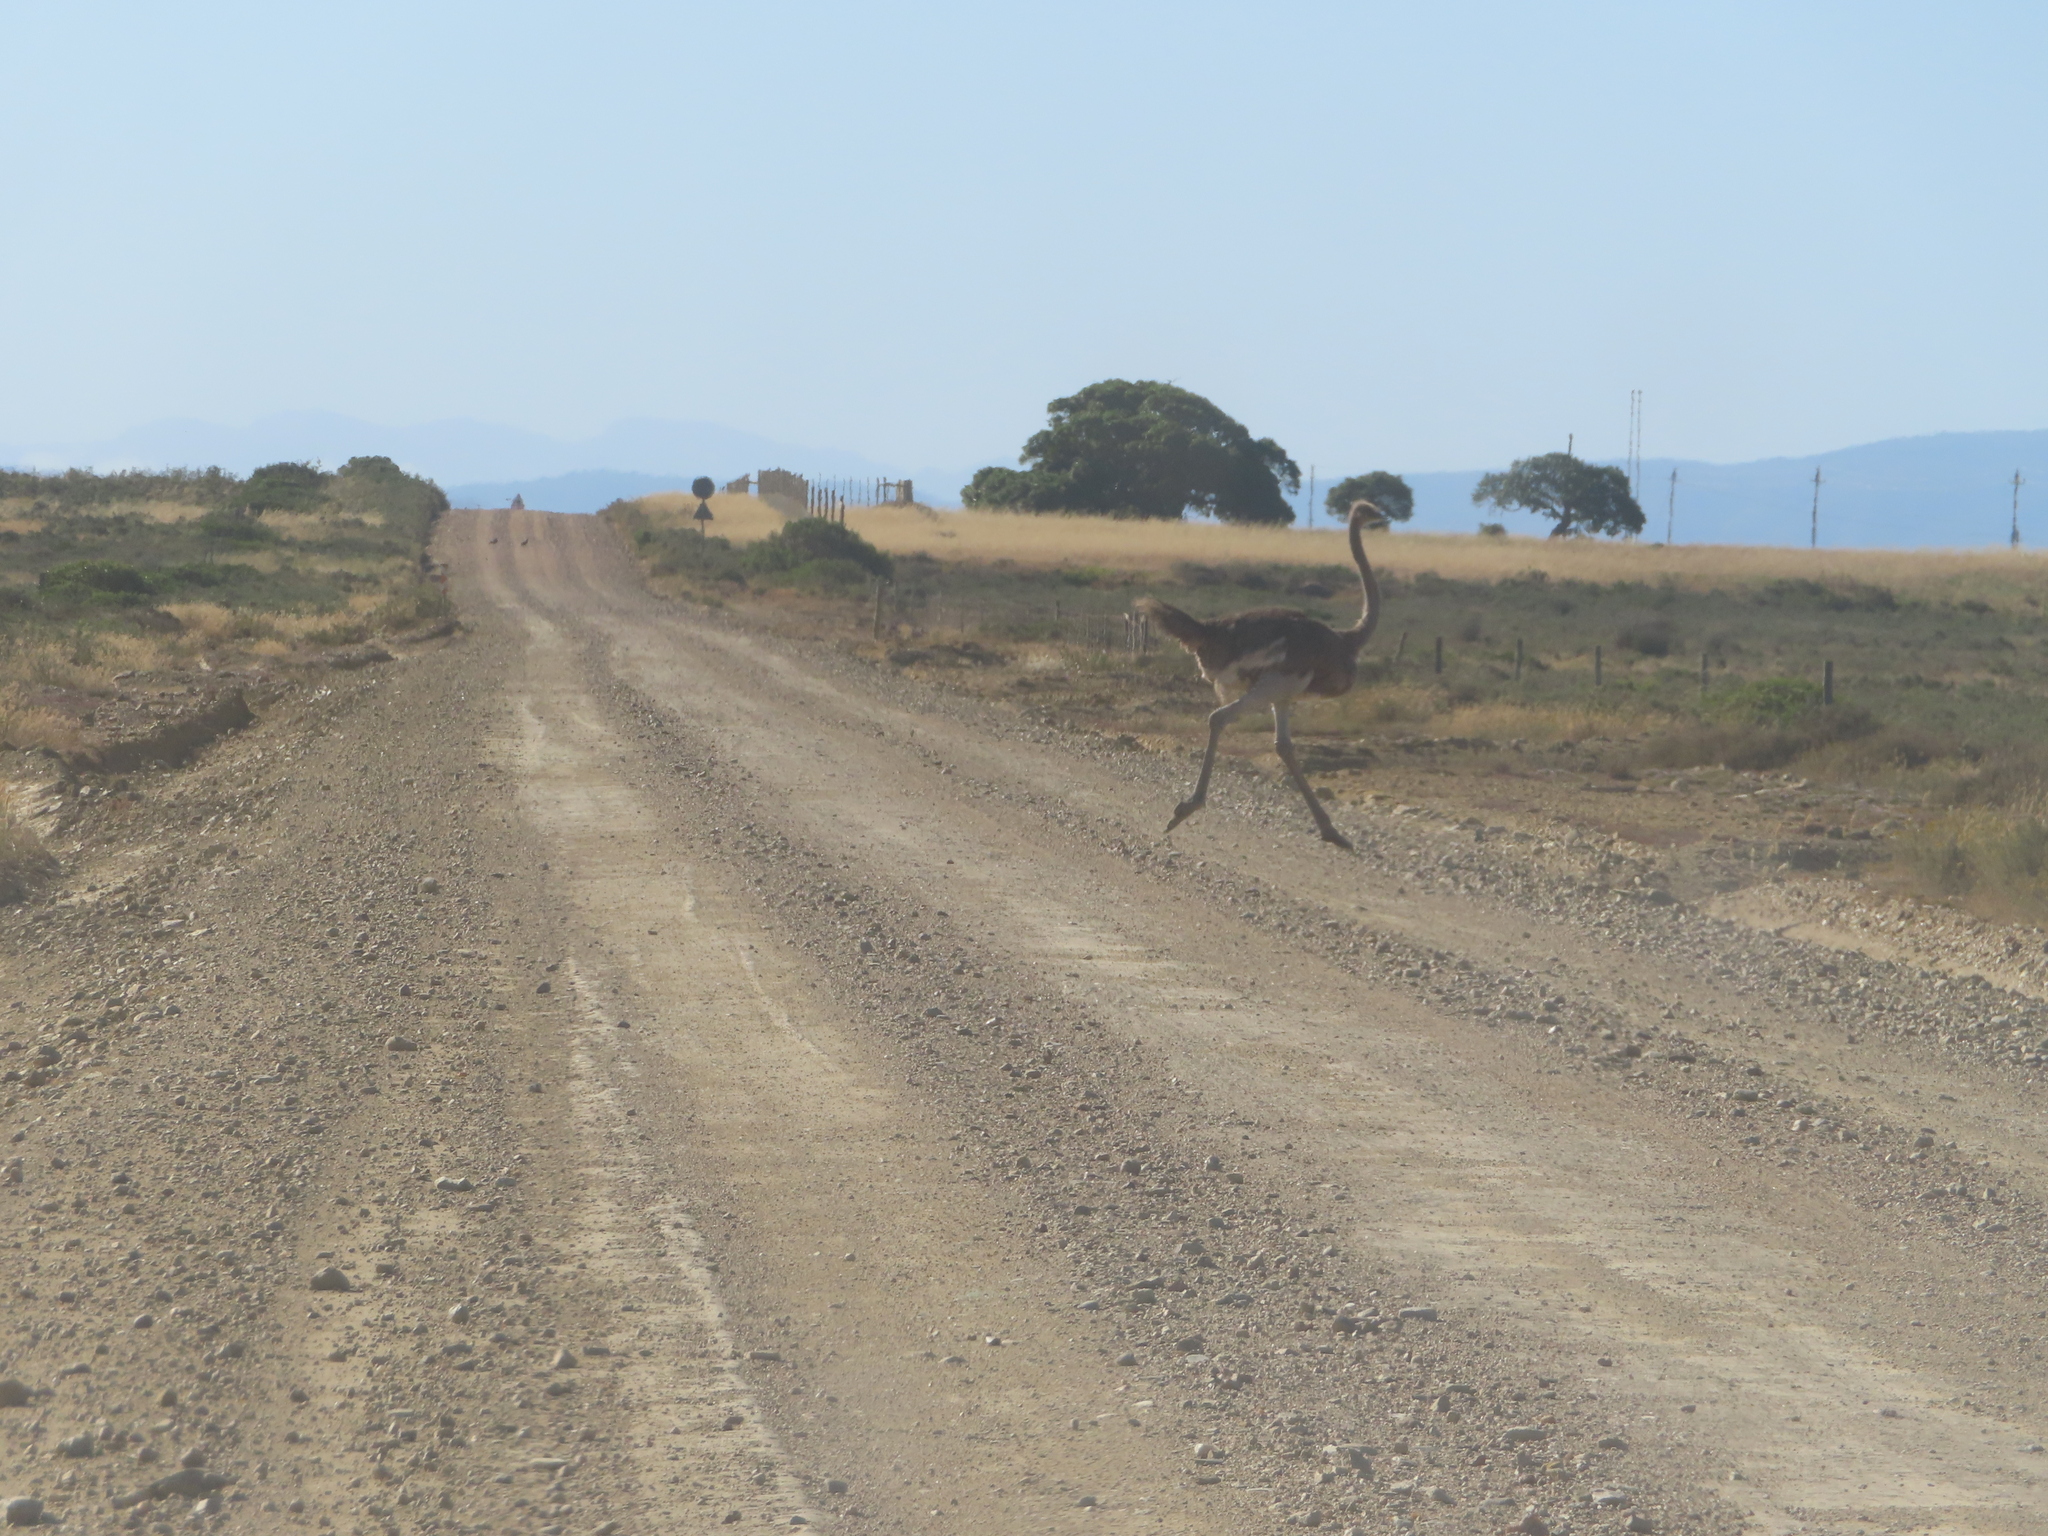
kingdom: Animalia
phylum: Chordata
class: Aves
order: Struthioniformes
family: Struthionidae
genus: Struthio
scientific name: Struthio camelus
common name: Common ostrich
